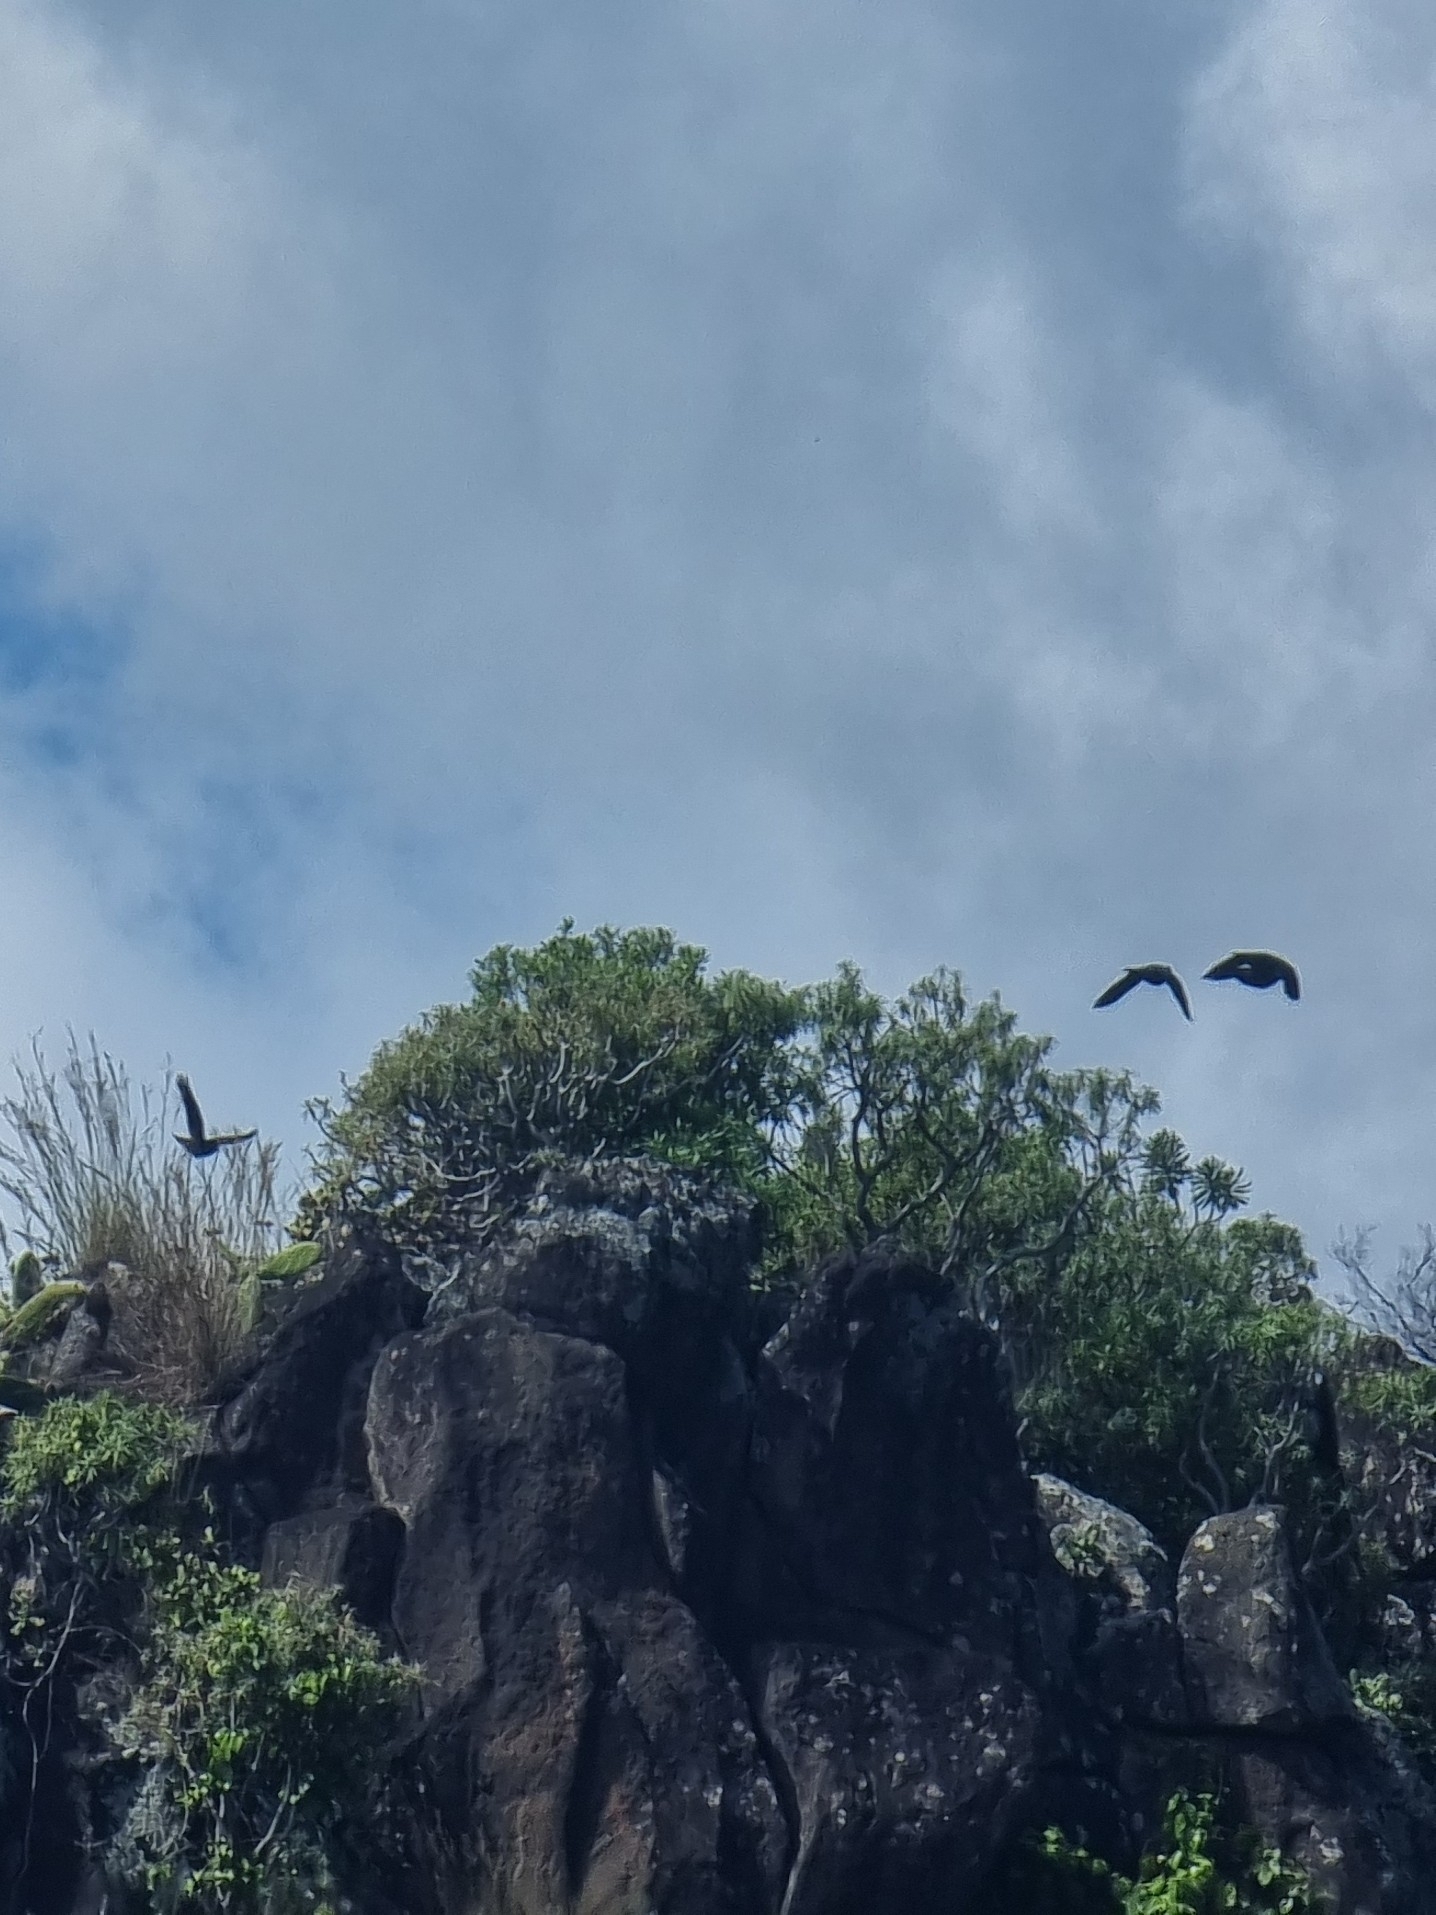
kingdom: Animalia
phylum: Chordata
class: Aves
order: Columbiformes
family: Columbidae
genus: Columba
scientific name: Columba trocaz
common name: Trocaz pigeon
